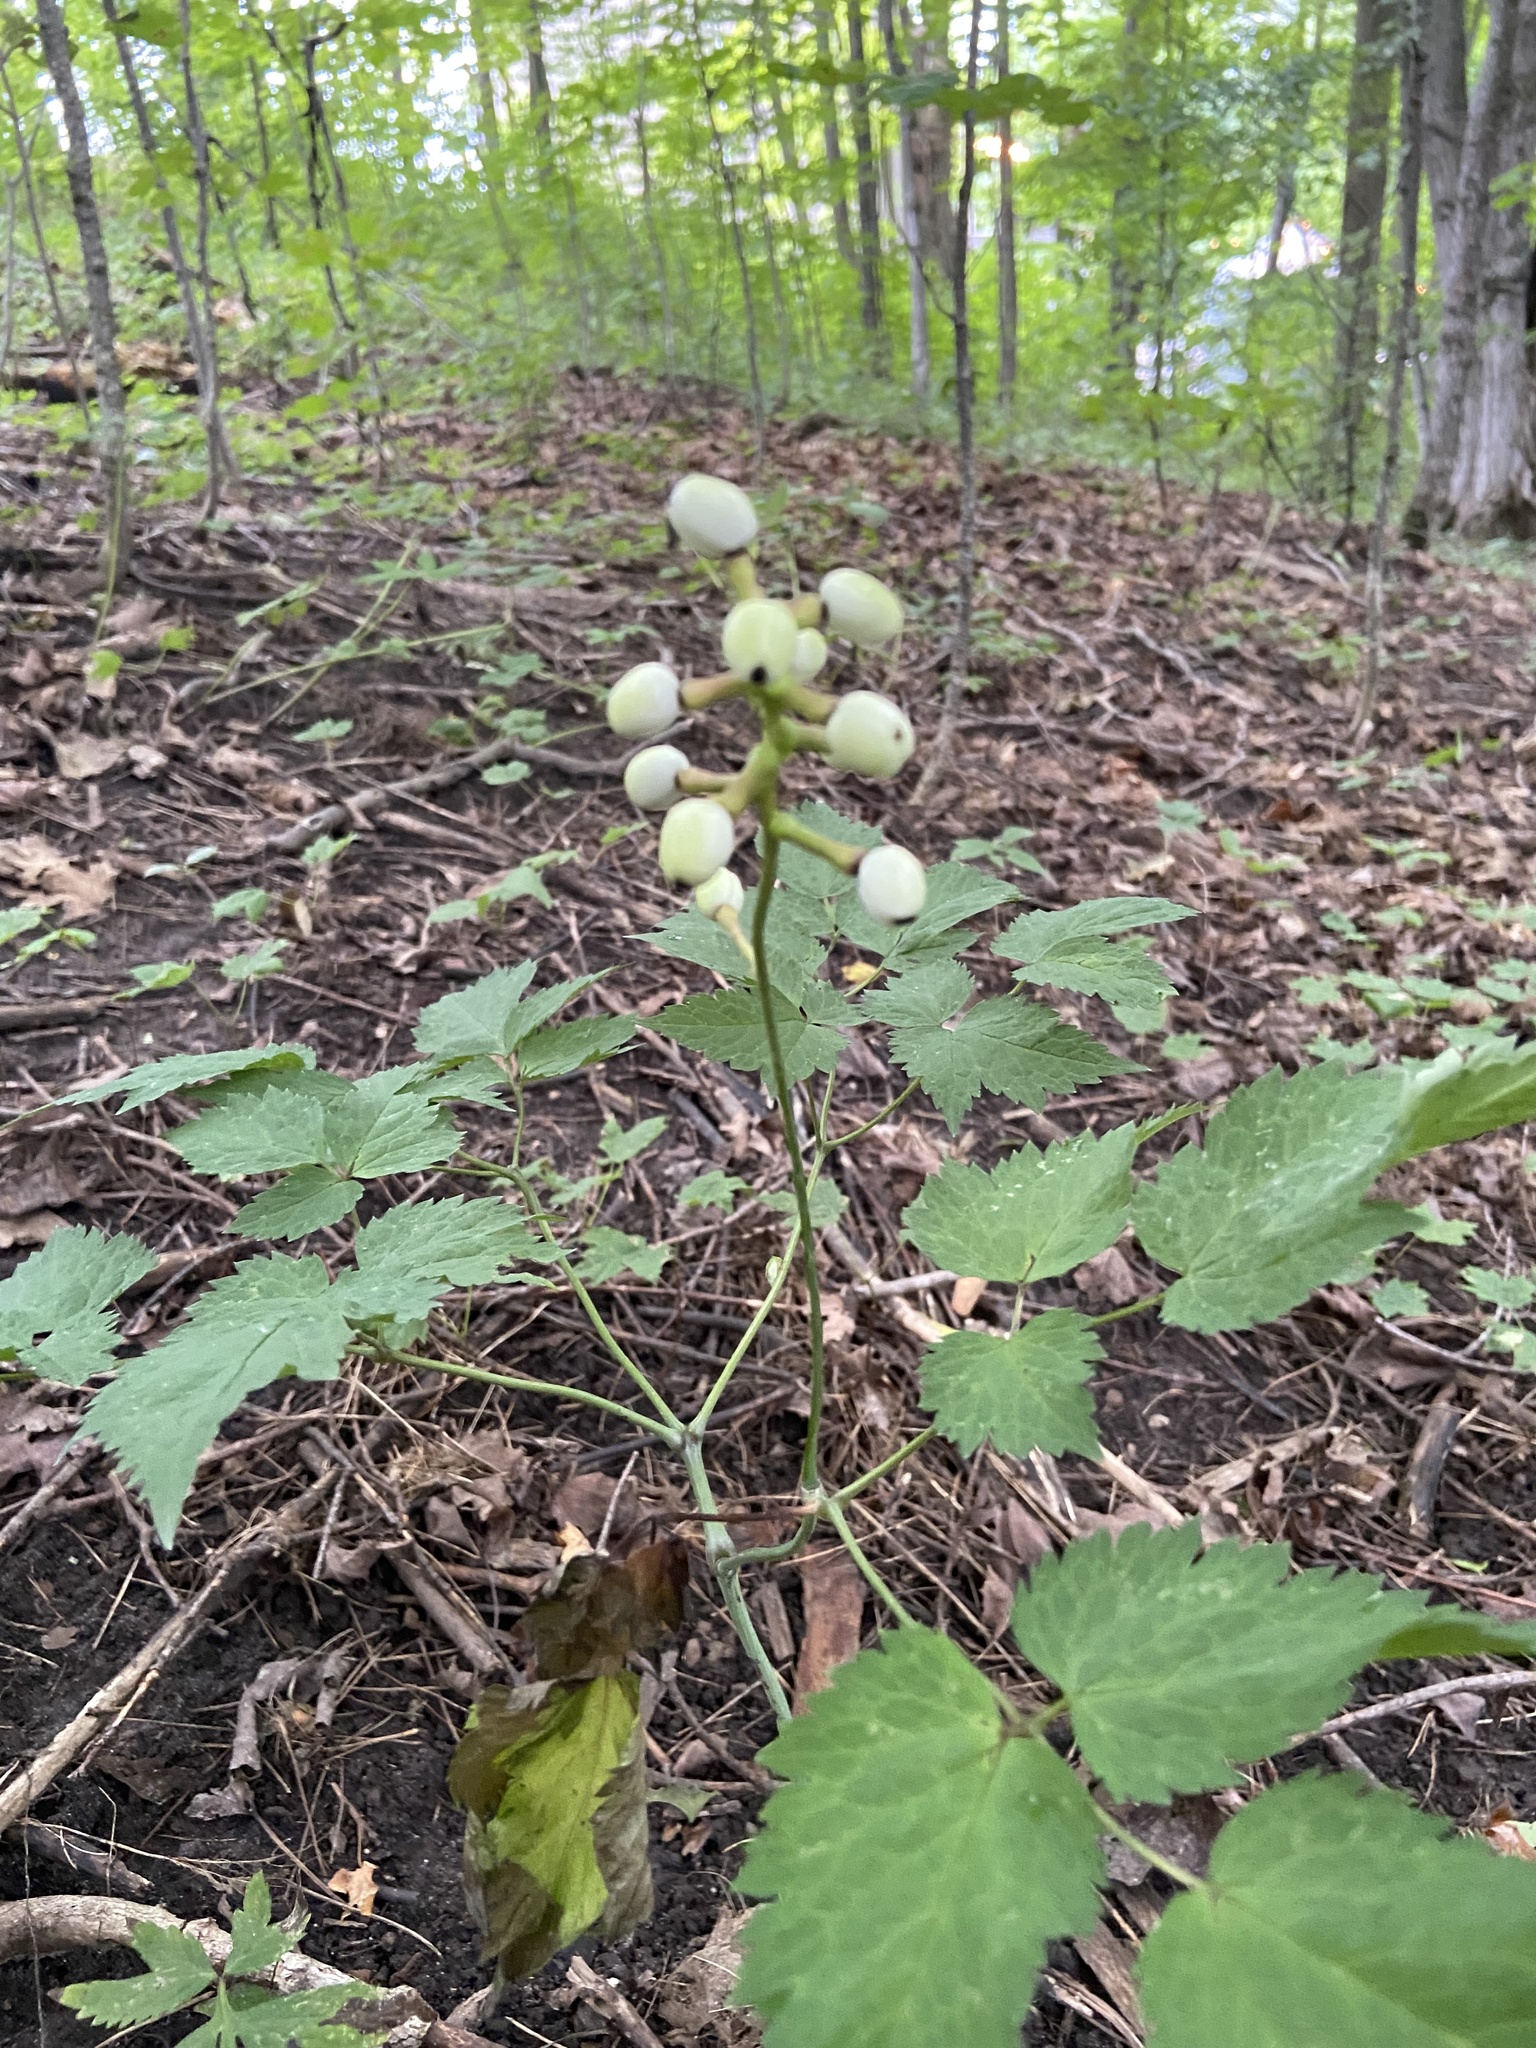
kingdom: Plantae
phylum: Tracheophyta
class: Magnoliopsida
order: Ranunculales
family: Ranunculaceae
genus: Actaea
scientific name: Actaea pachypoda
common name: Doll's-eyes
